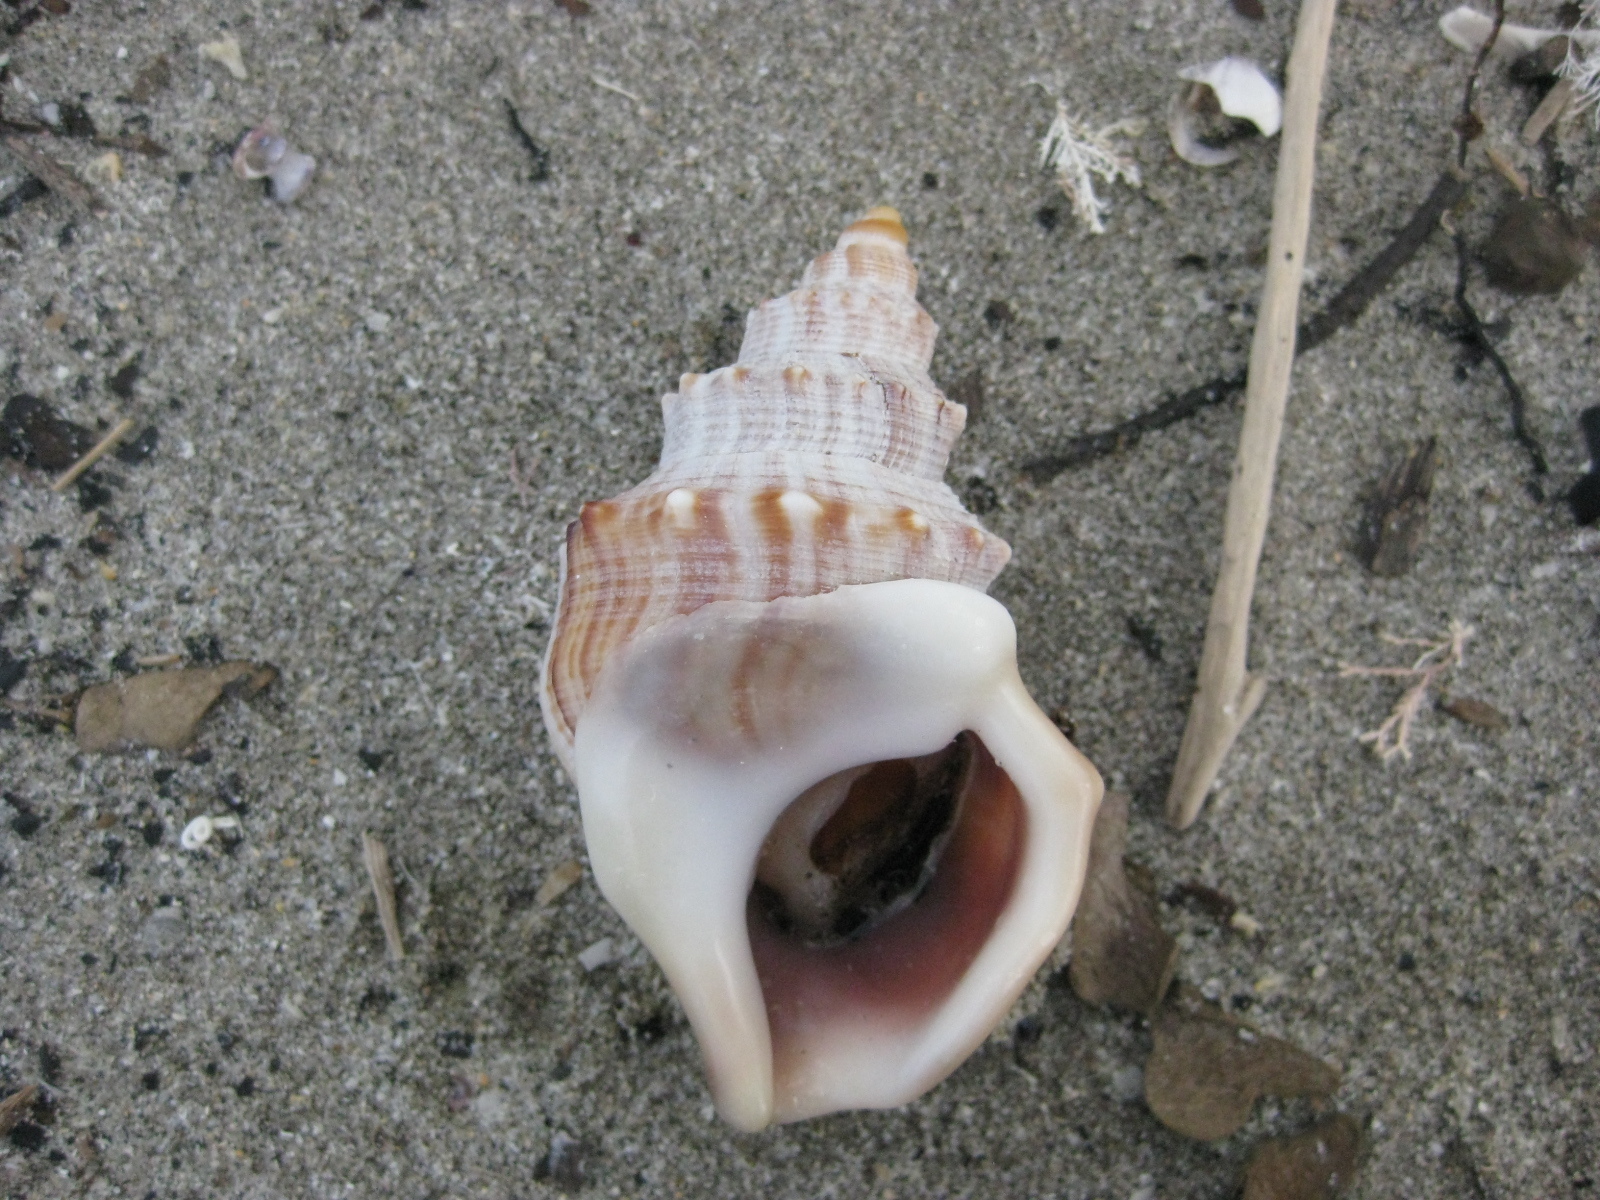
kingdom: Animalia
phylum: Mollusca
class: Gastropoda
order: Littorinimorpha
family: Struthiolariidae
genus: Struthiolaria
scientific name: Struthiolaria papulosa
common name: Large ostrich foot
